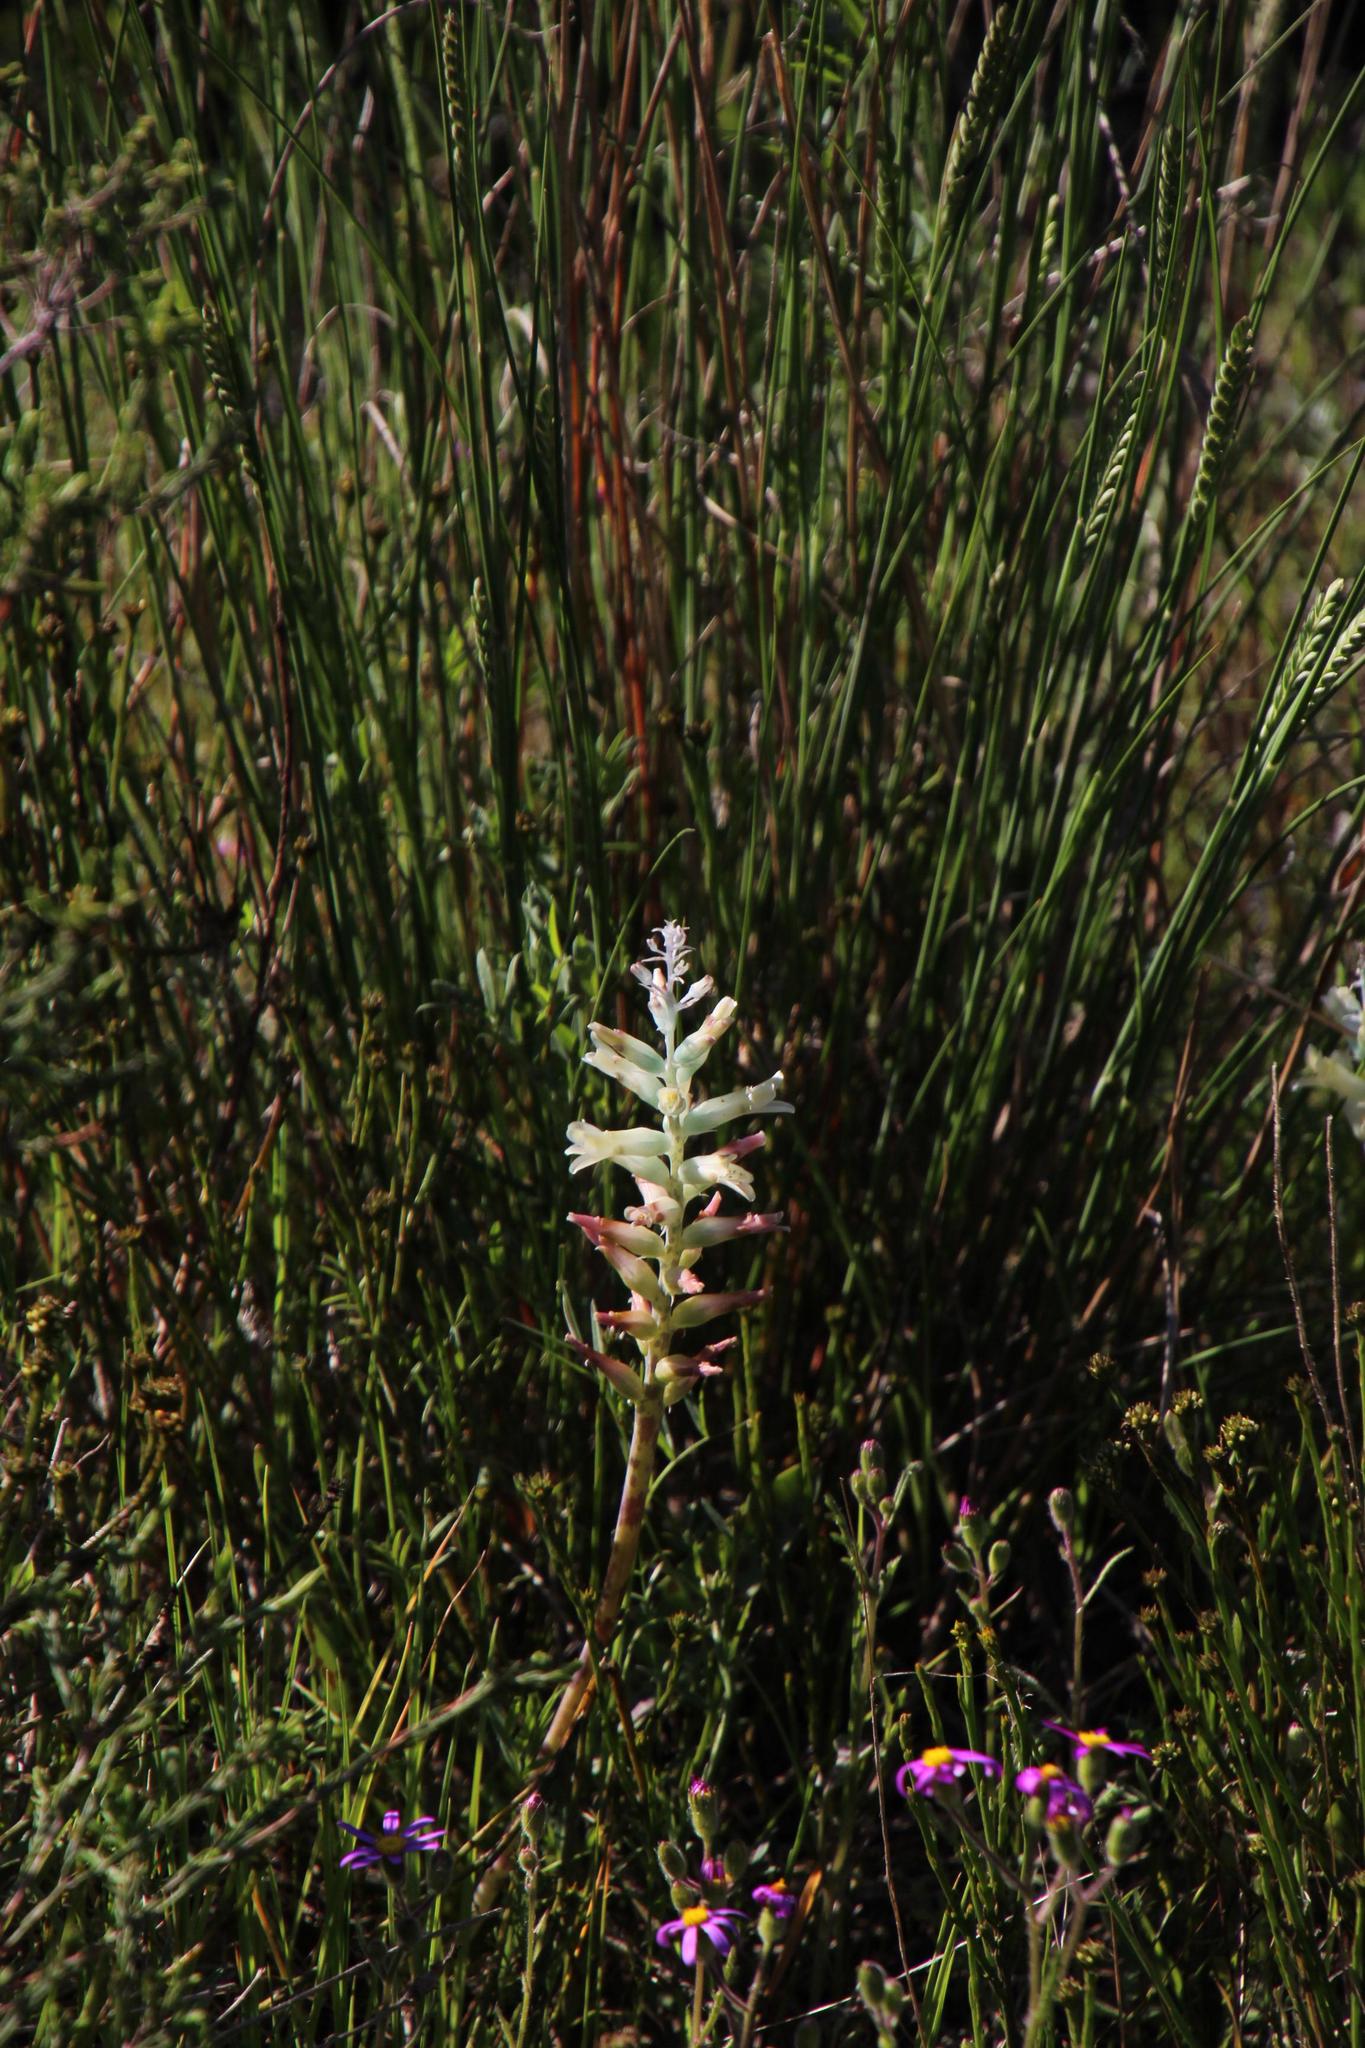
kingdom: Plantae
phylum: Tracheophyta
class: Liliopsida
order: Asparagales
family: Asparagaceae
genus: Lachenalia
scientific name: Lachenalia orchioides
